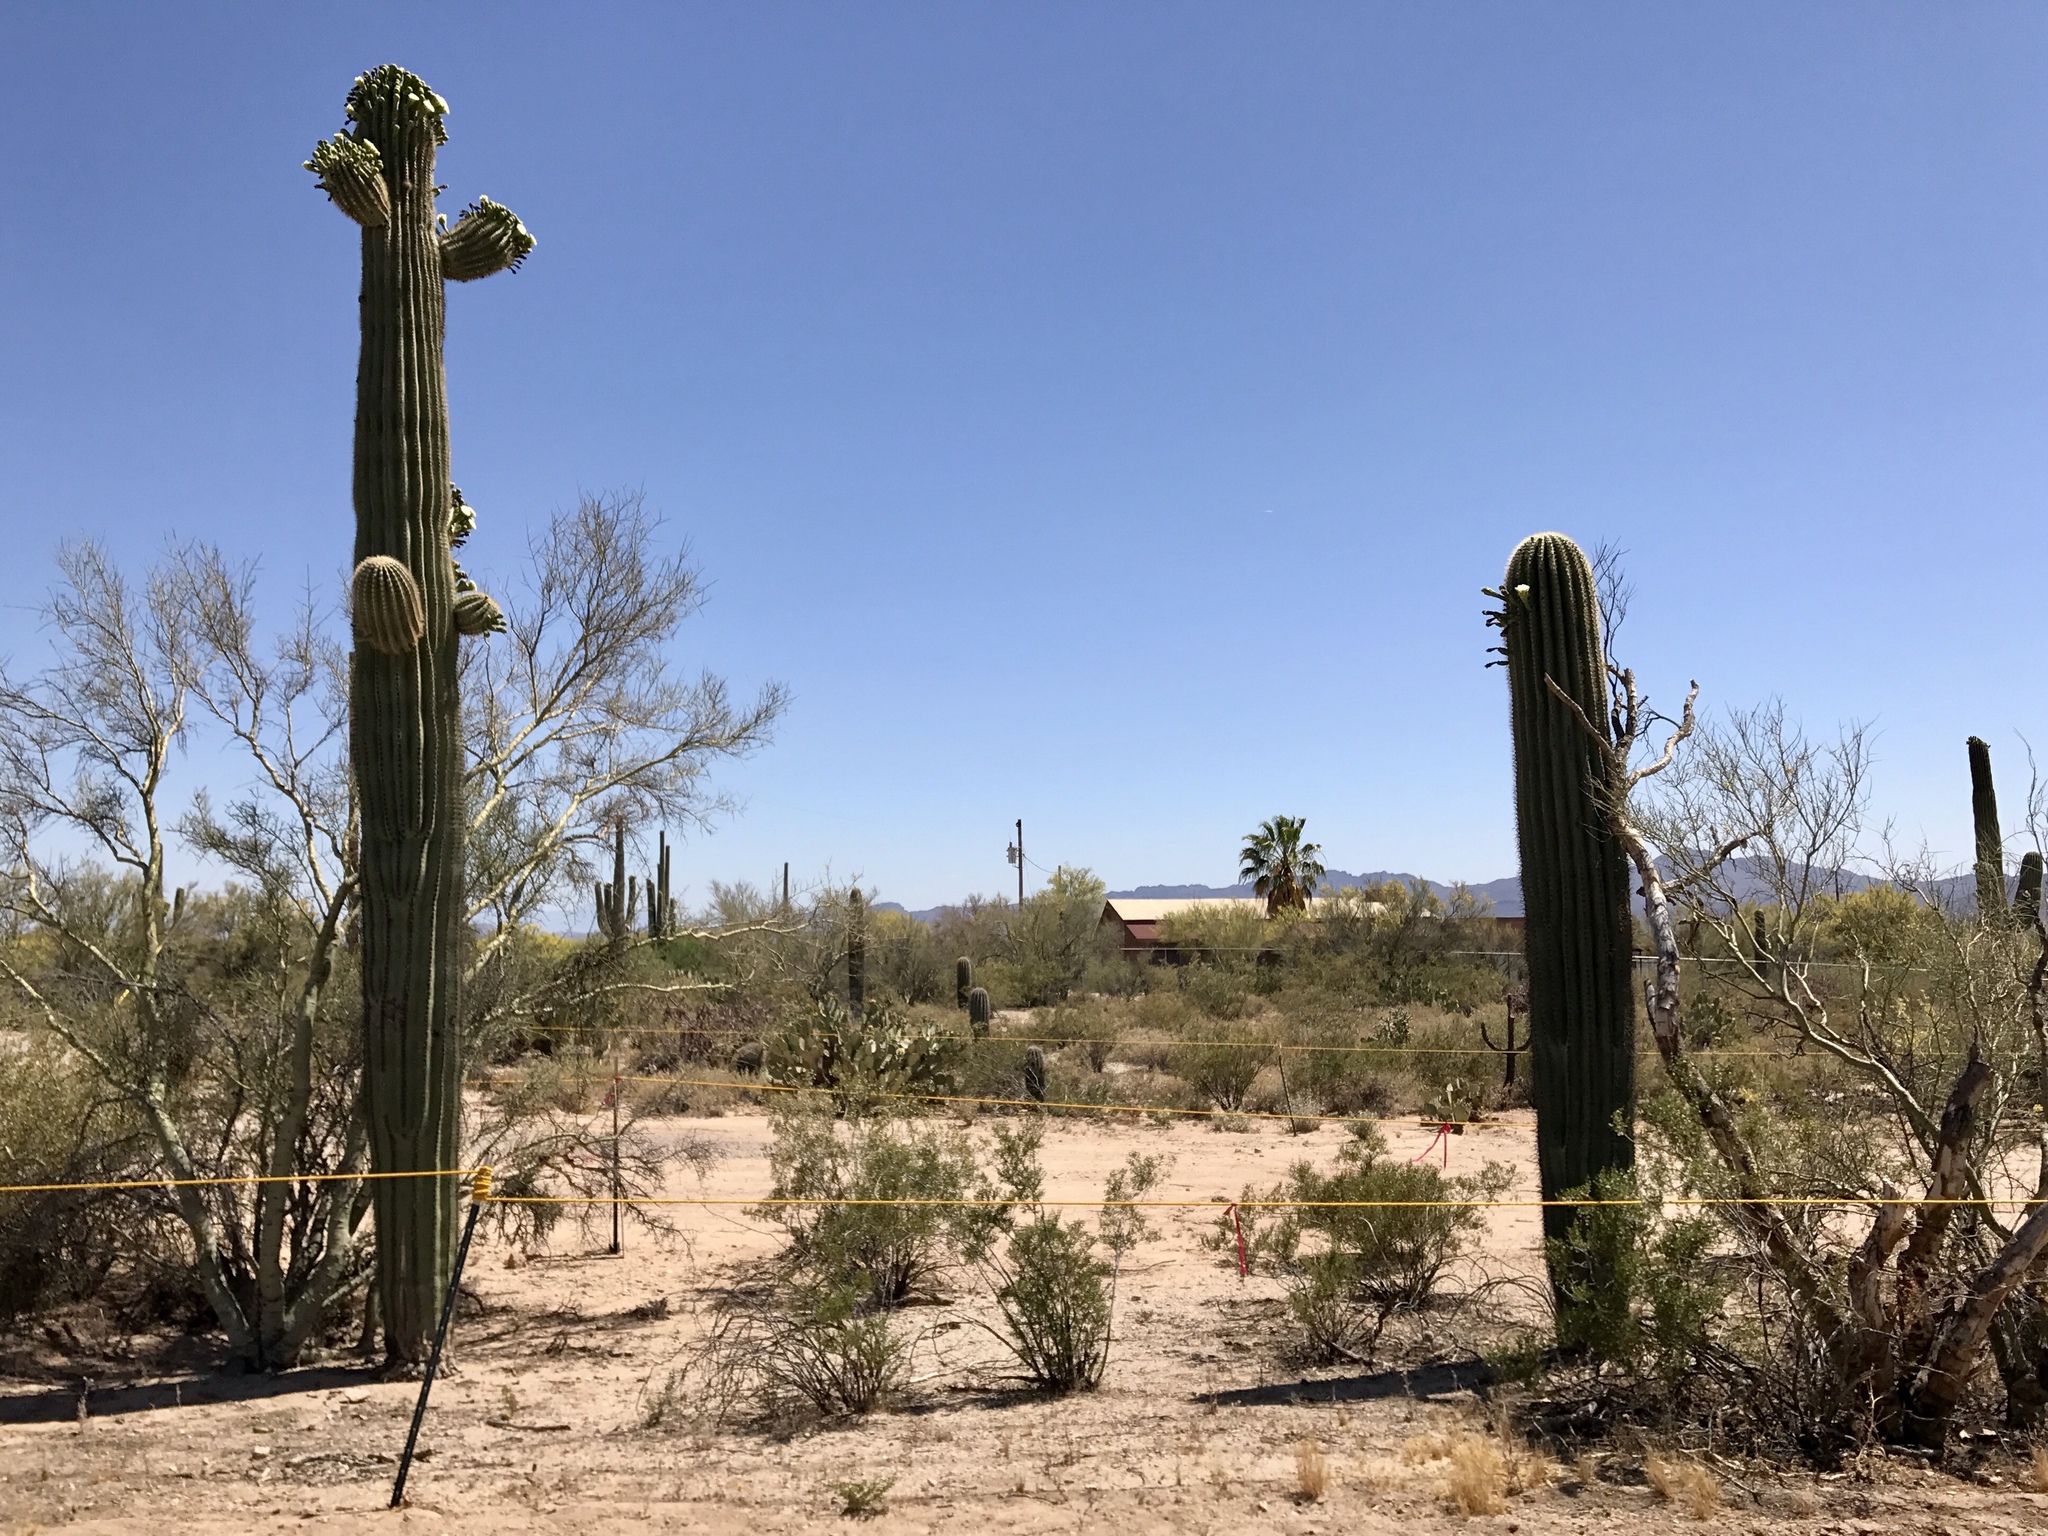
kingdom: Plantae
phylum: Tracheophyta
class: Magnoliopsida
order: Caryophyllales
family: Cactaceae
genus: Carnegiea
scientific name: Carnegiea gigantea
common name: Saguaro
